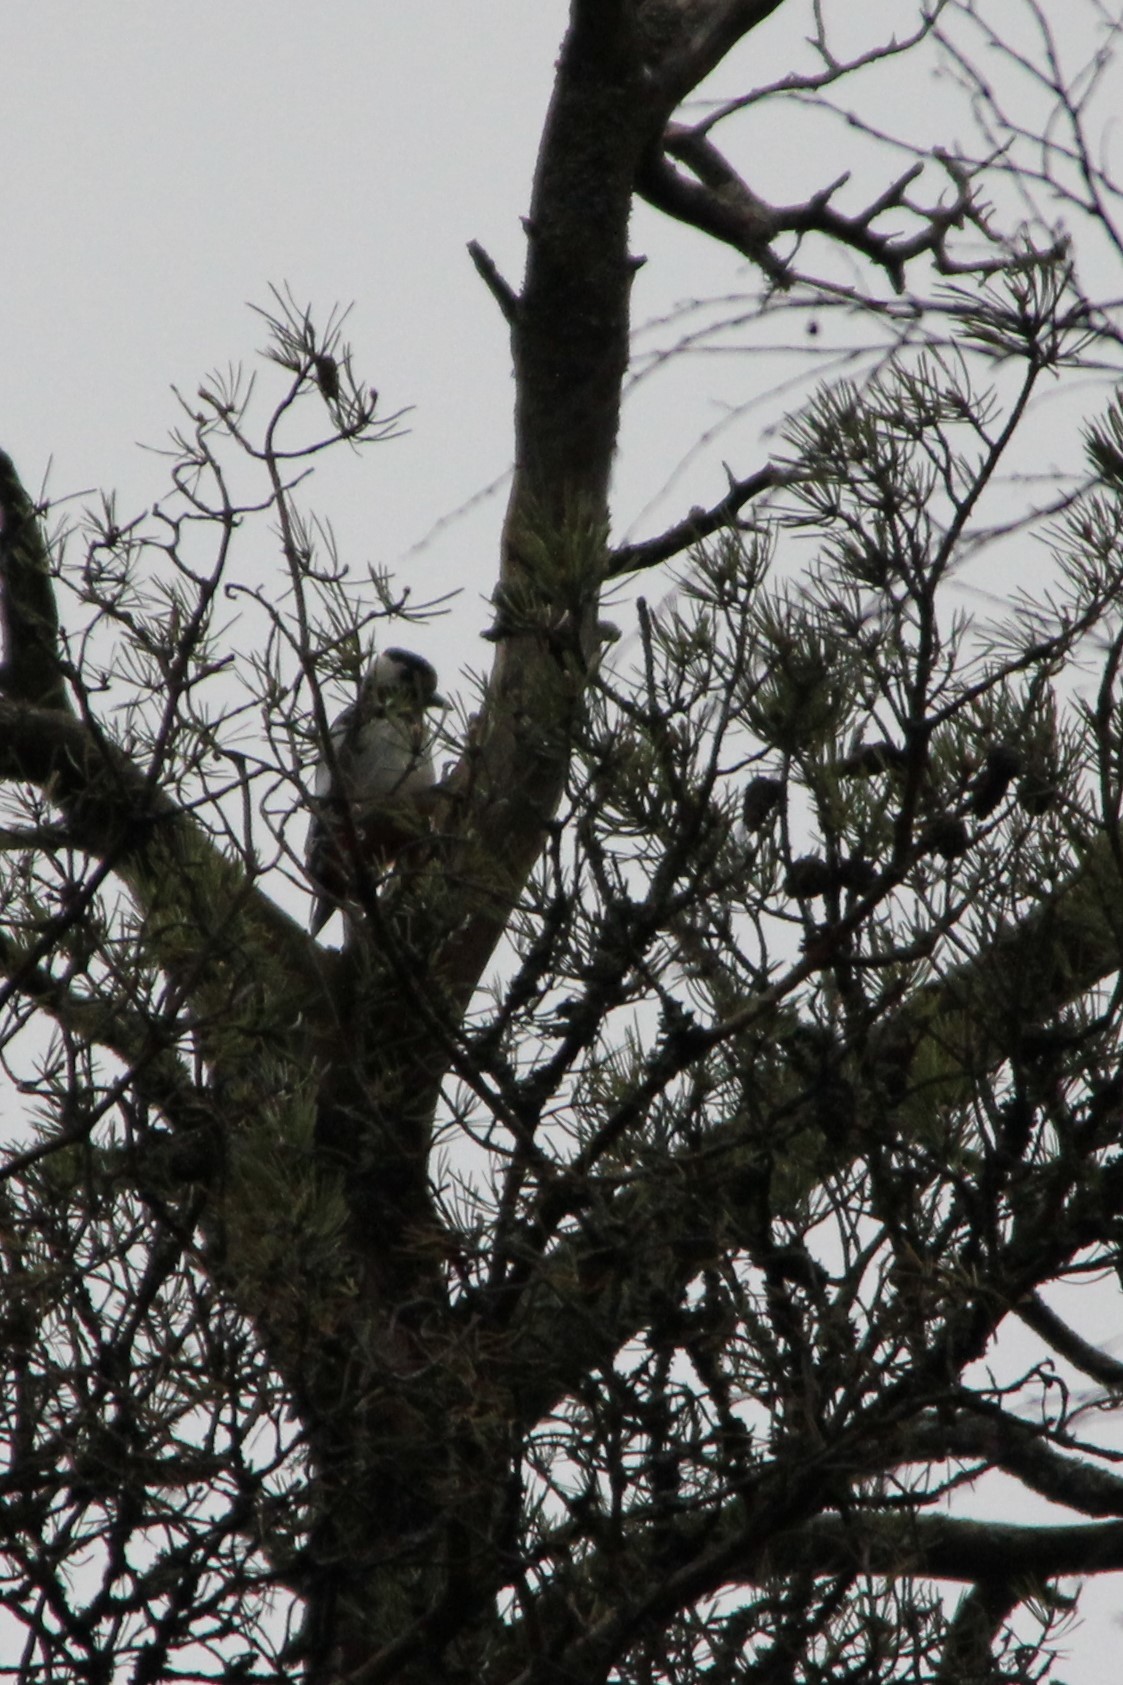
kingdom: Animalia
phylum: Chordata
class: Aves
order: Piciformes
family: Picidae
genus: Dendrocopos
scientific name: Dendrocopos major
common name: Great spotted woodpecker
